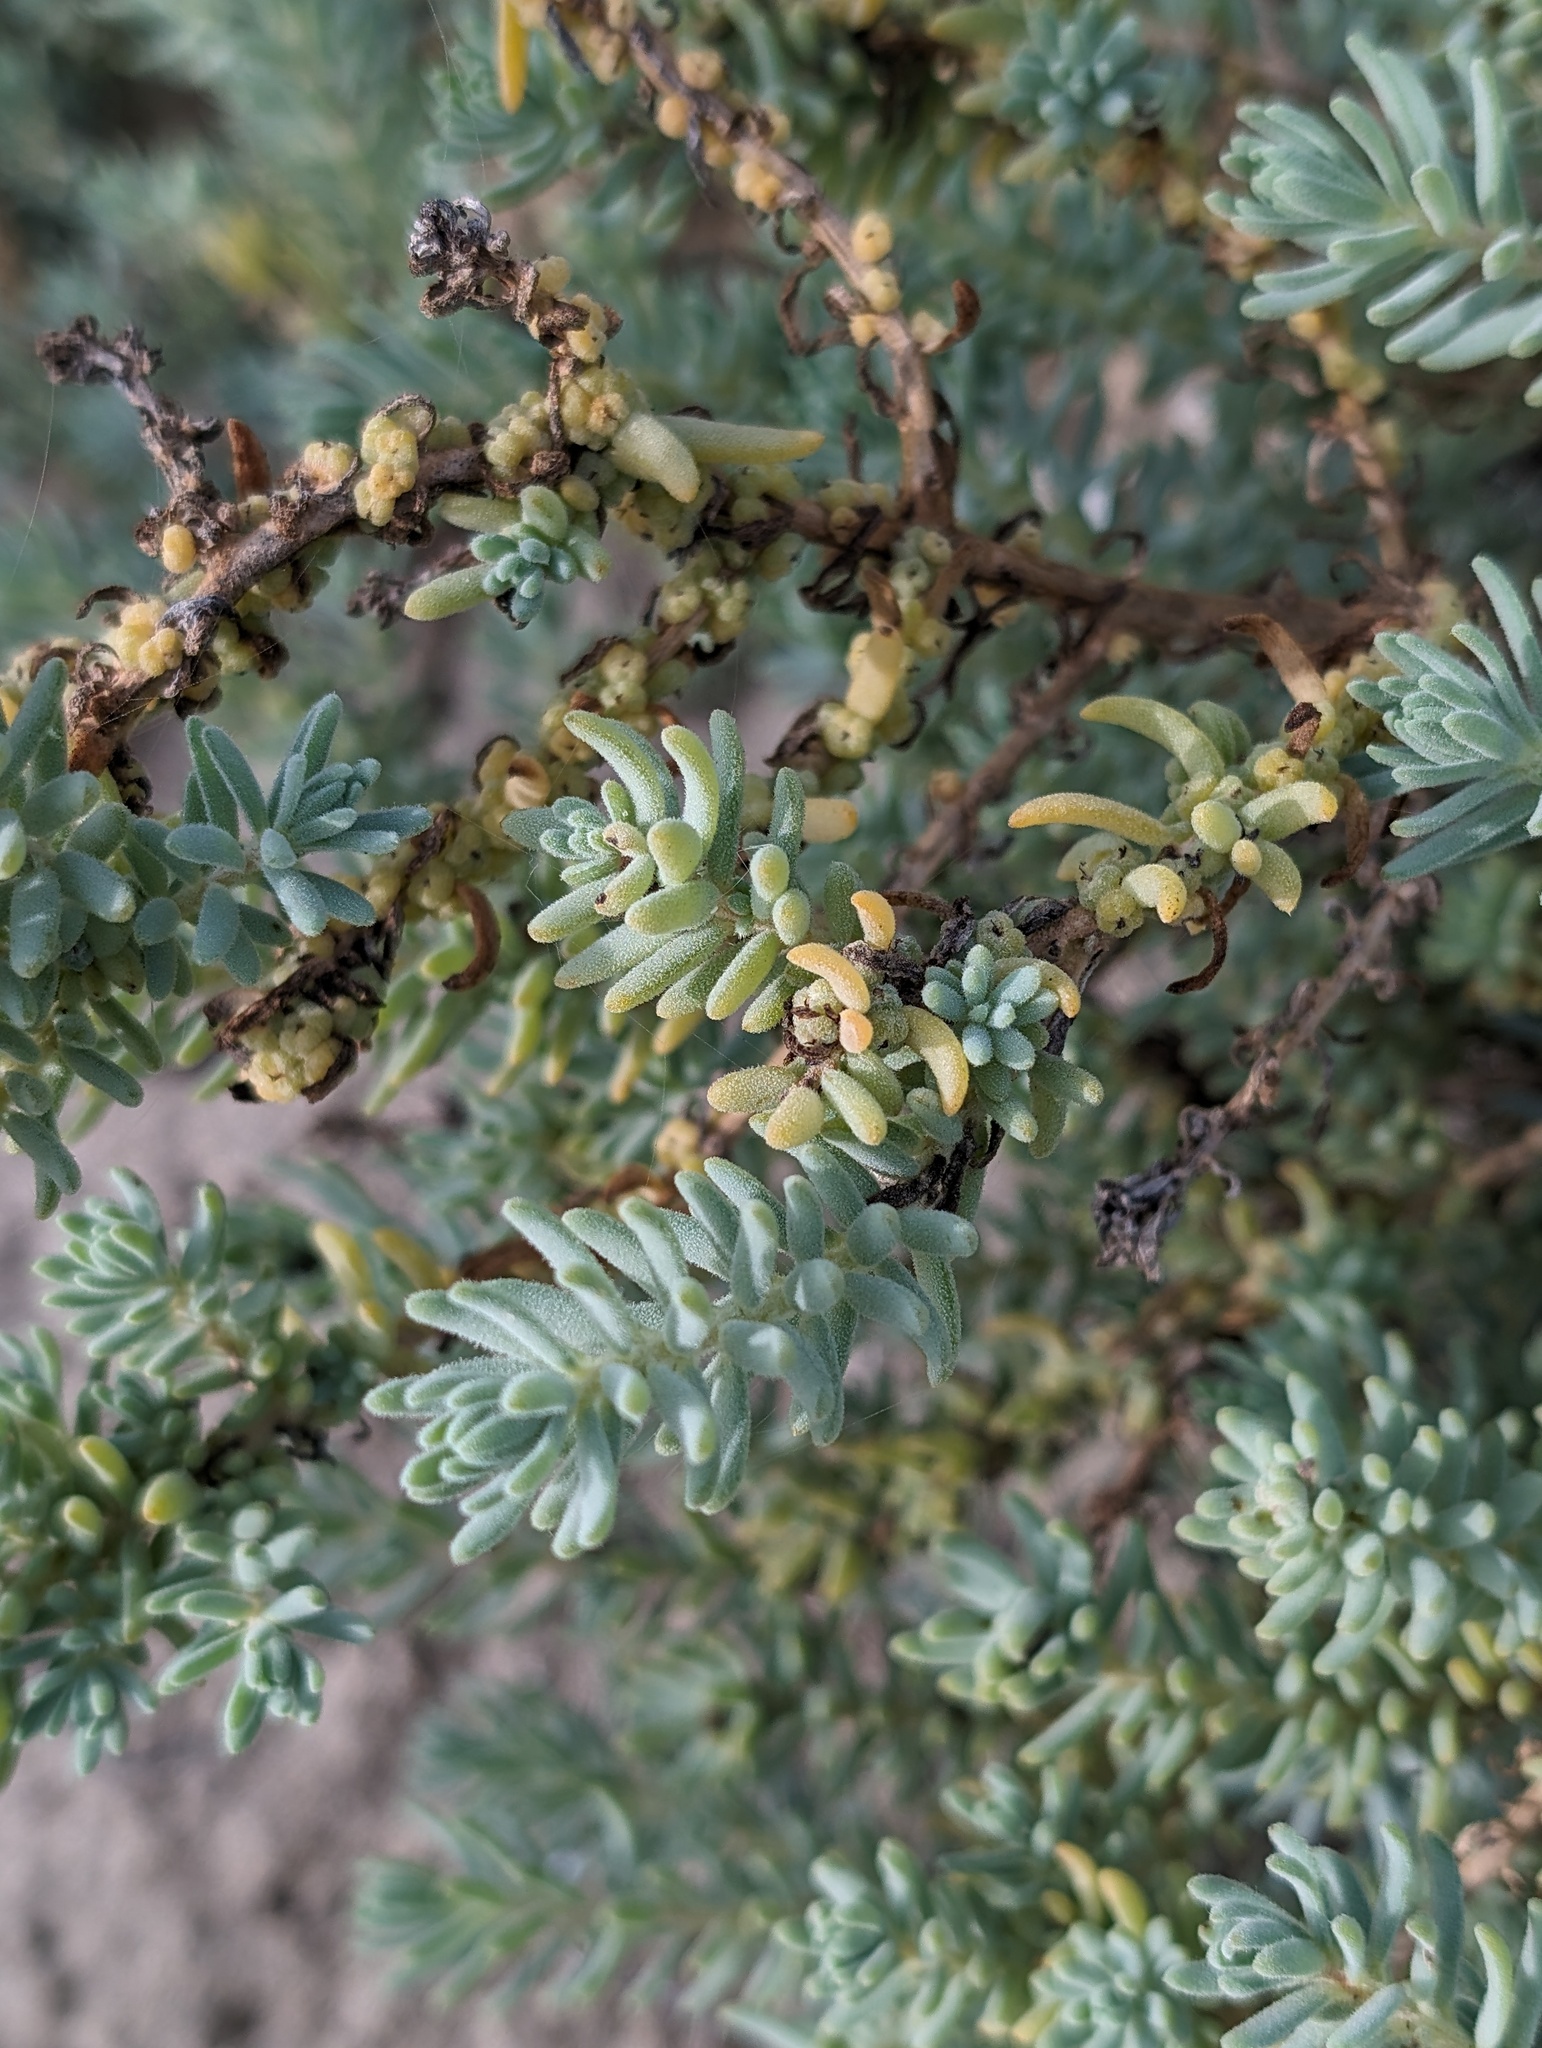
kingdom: Plantae
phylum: Tracheophyta
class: Magnoliopsida
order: Caryophyllales
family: Amaranthaceae
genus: Suaeda
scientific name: Suaeda taxifolia
